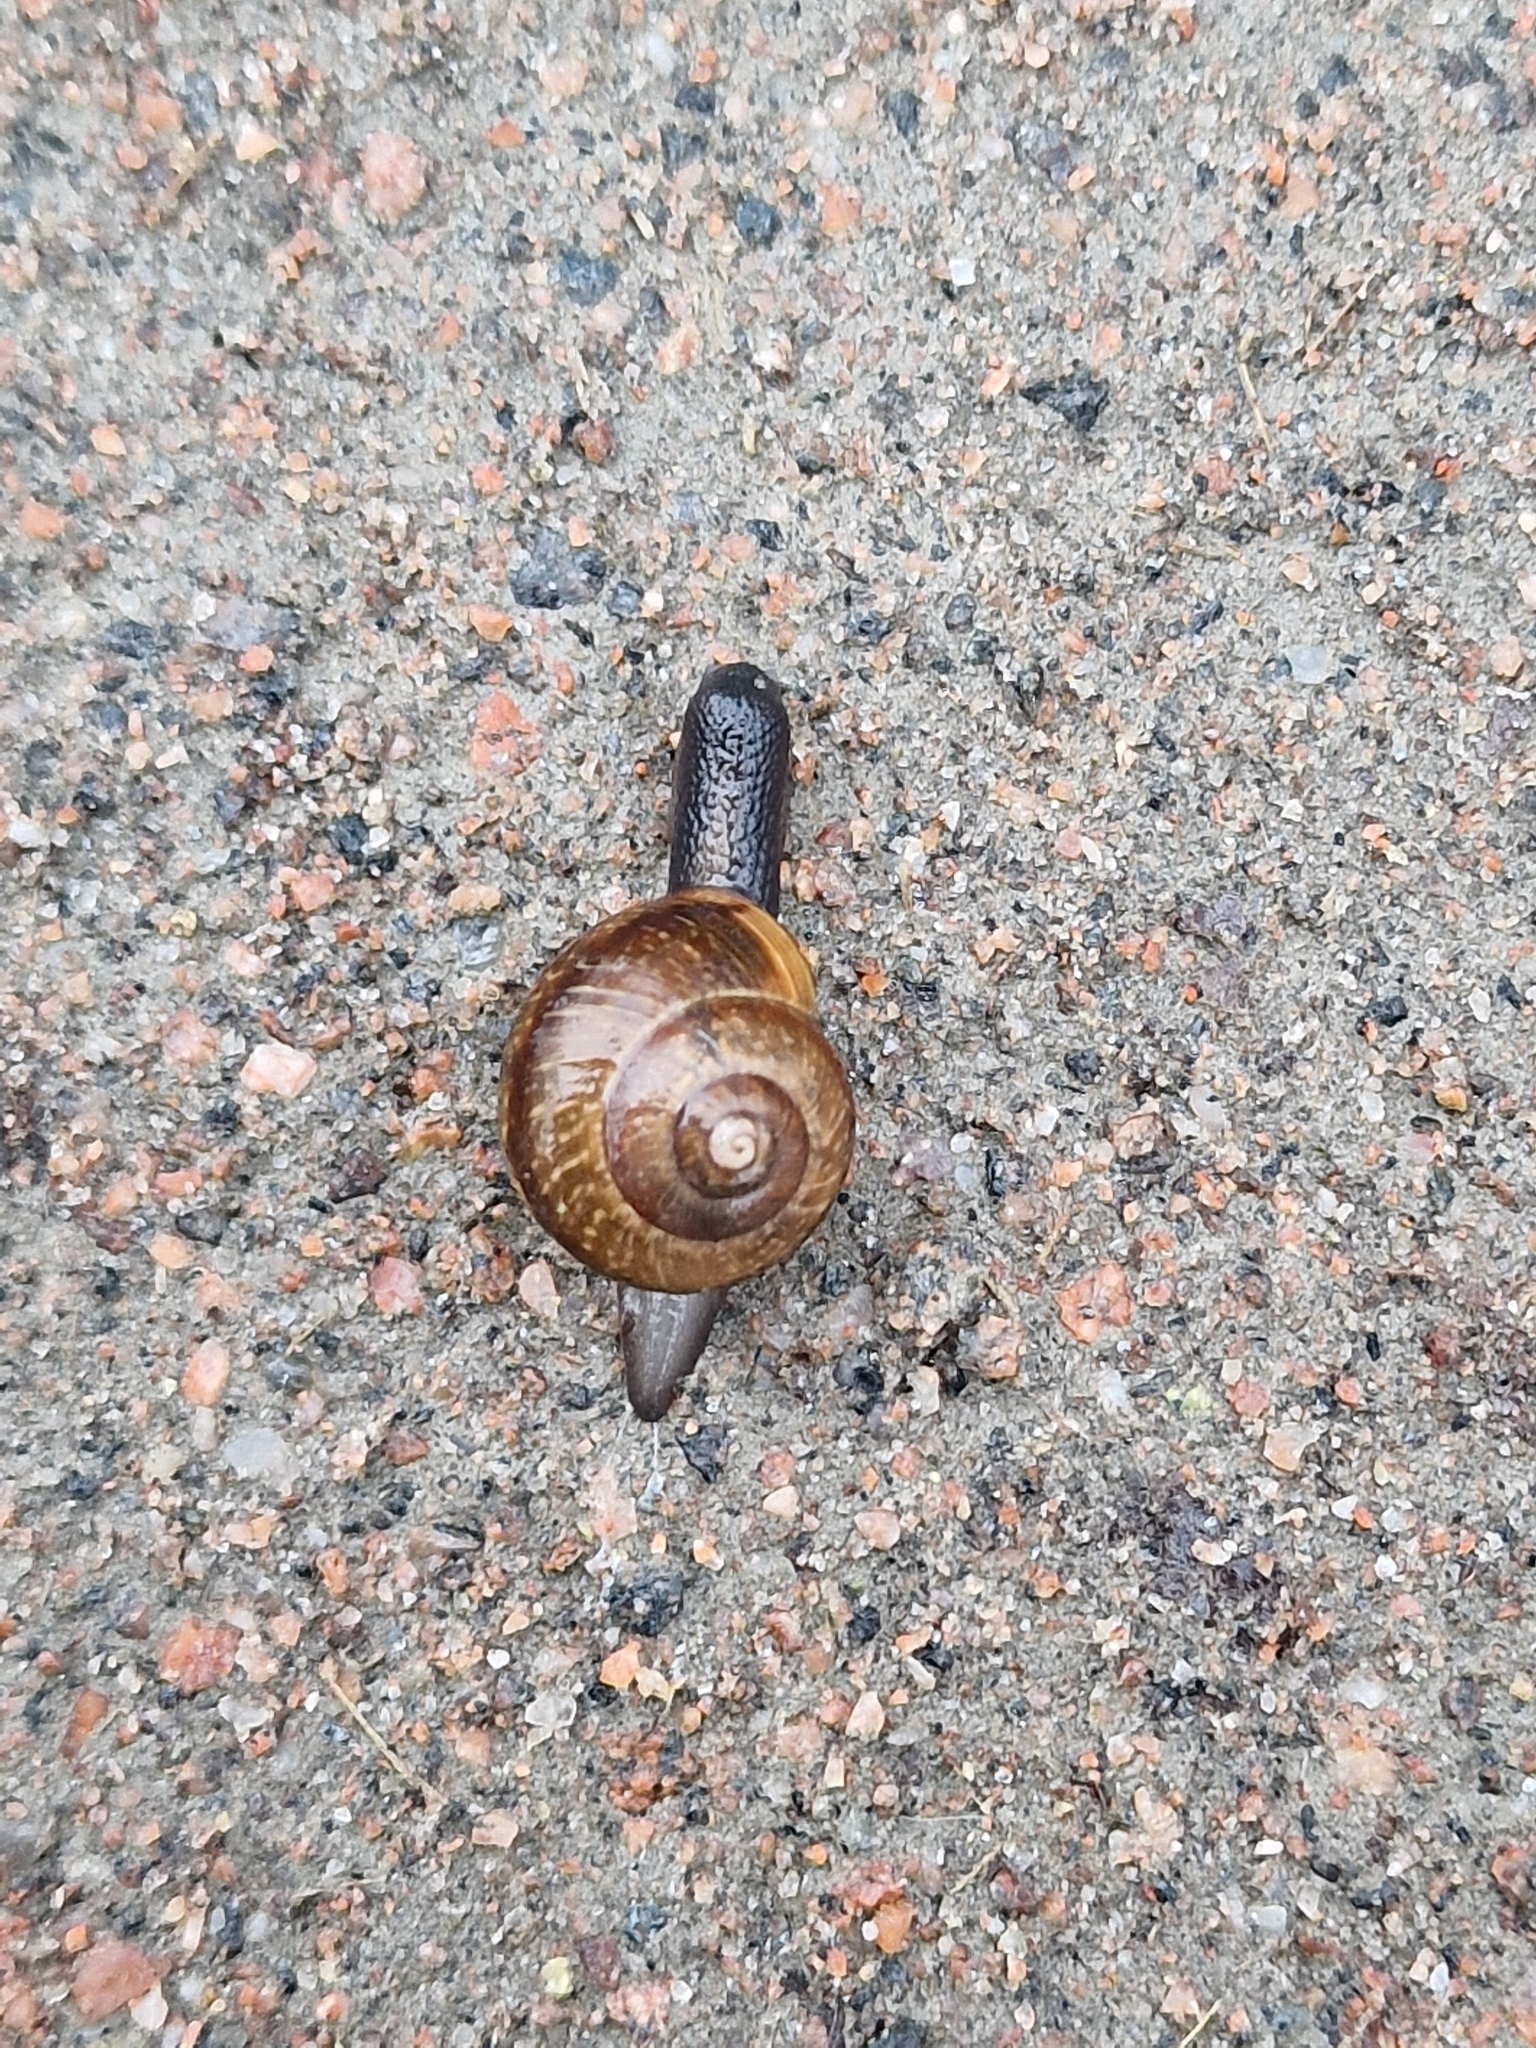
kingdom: Animalia
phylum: Mollusca
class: Gastropoda
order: Stylommatophora
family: Helicidae
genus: Arianta
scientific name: Arianta arbustorum
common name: Copse snail
